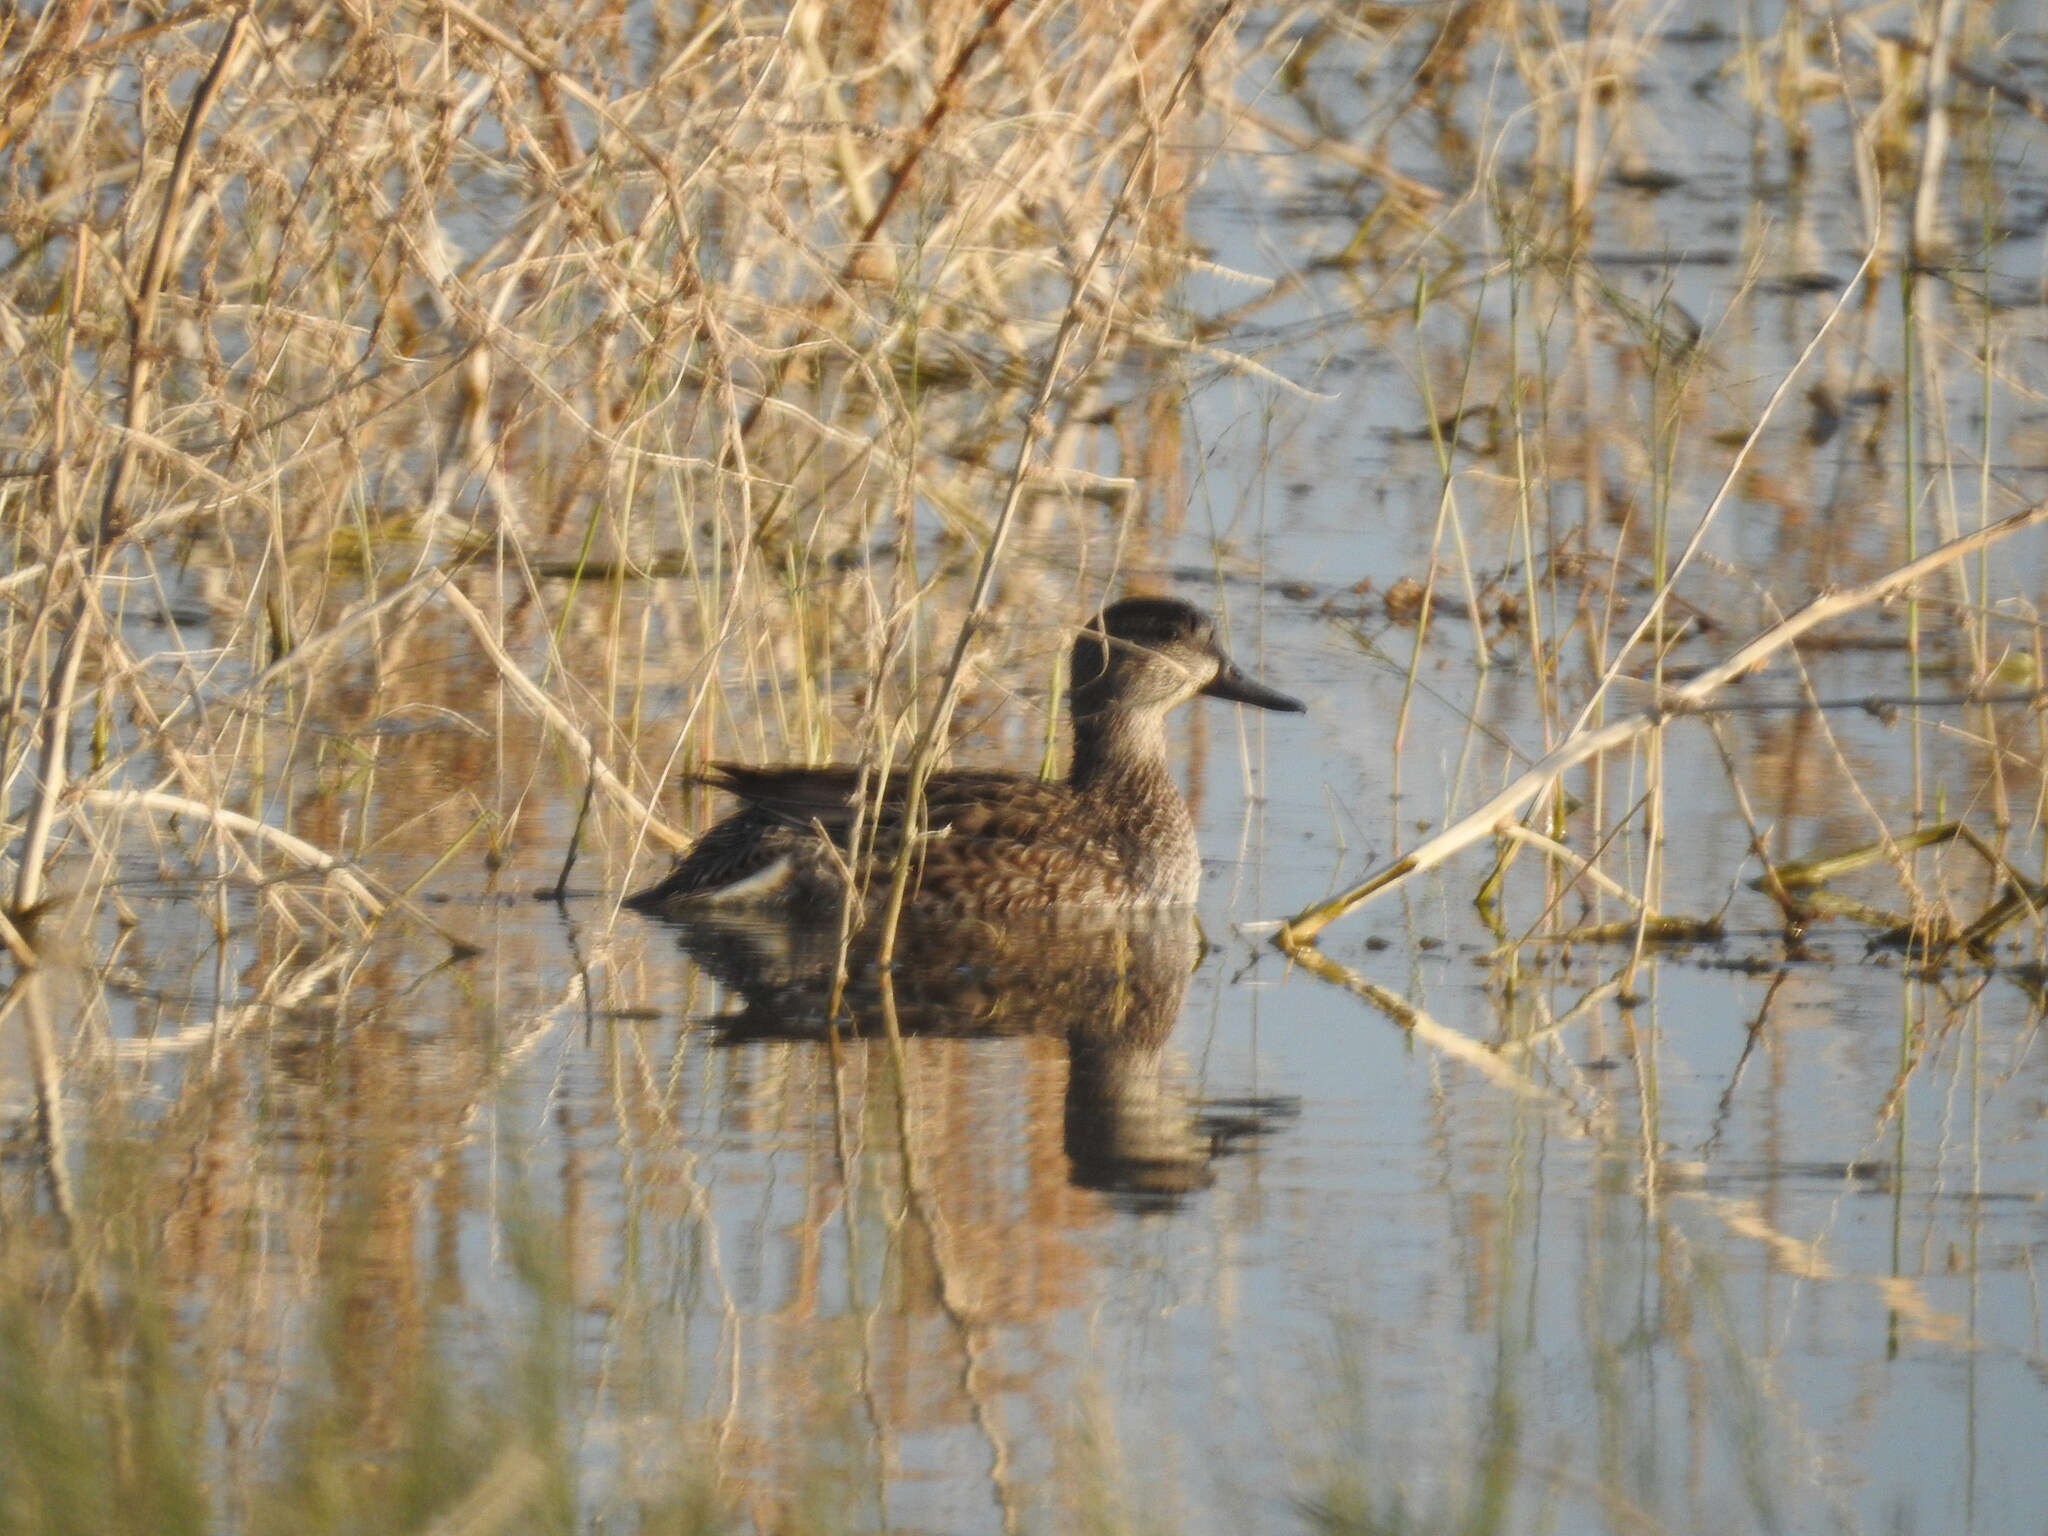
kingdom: Animalia
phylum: Chordata
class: Aves
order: Anseriformes
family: Anatidae
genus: Anas
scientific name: Anas crecca
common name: Eurasian teal
